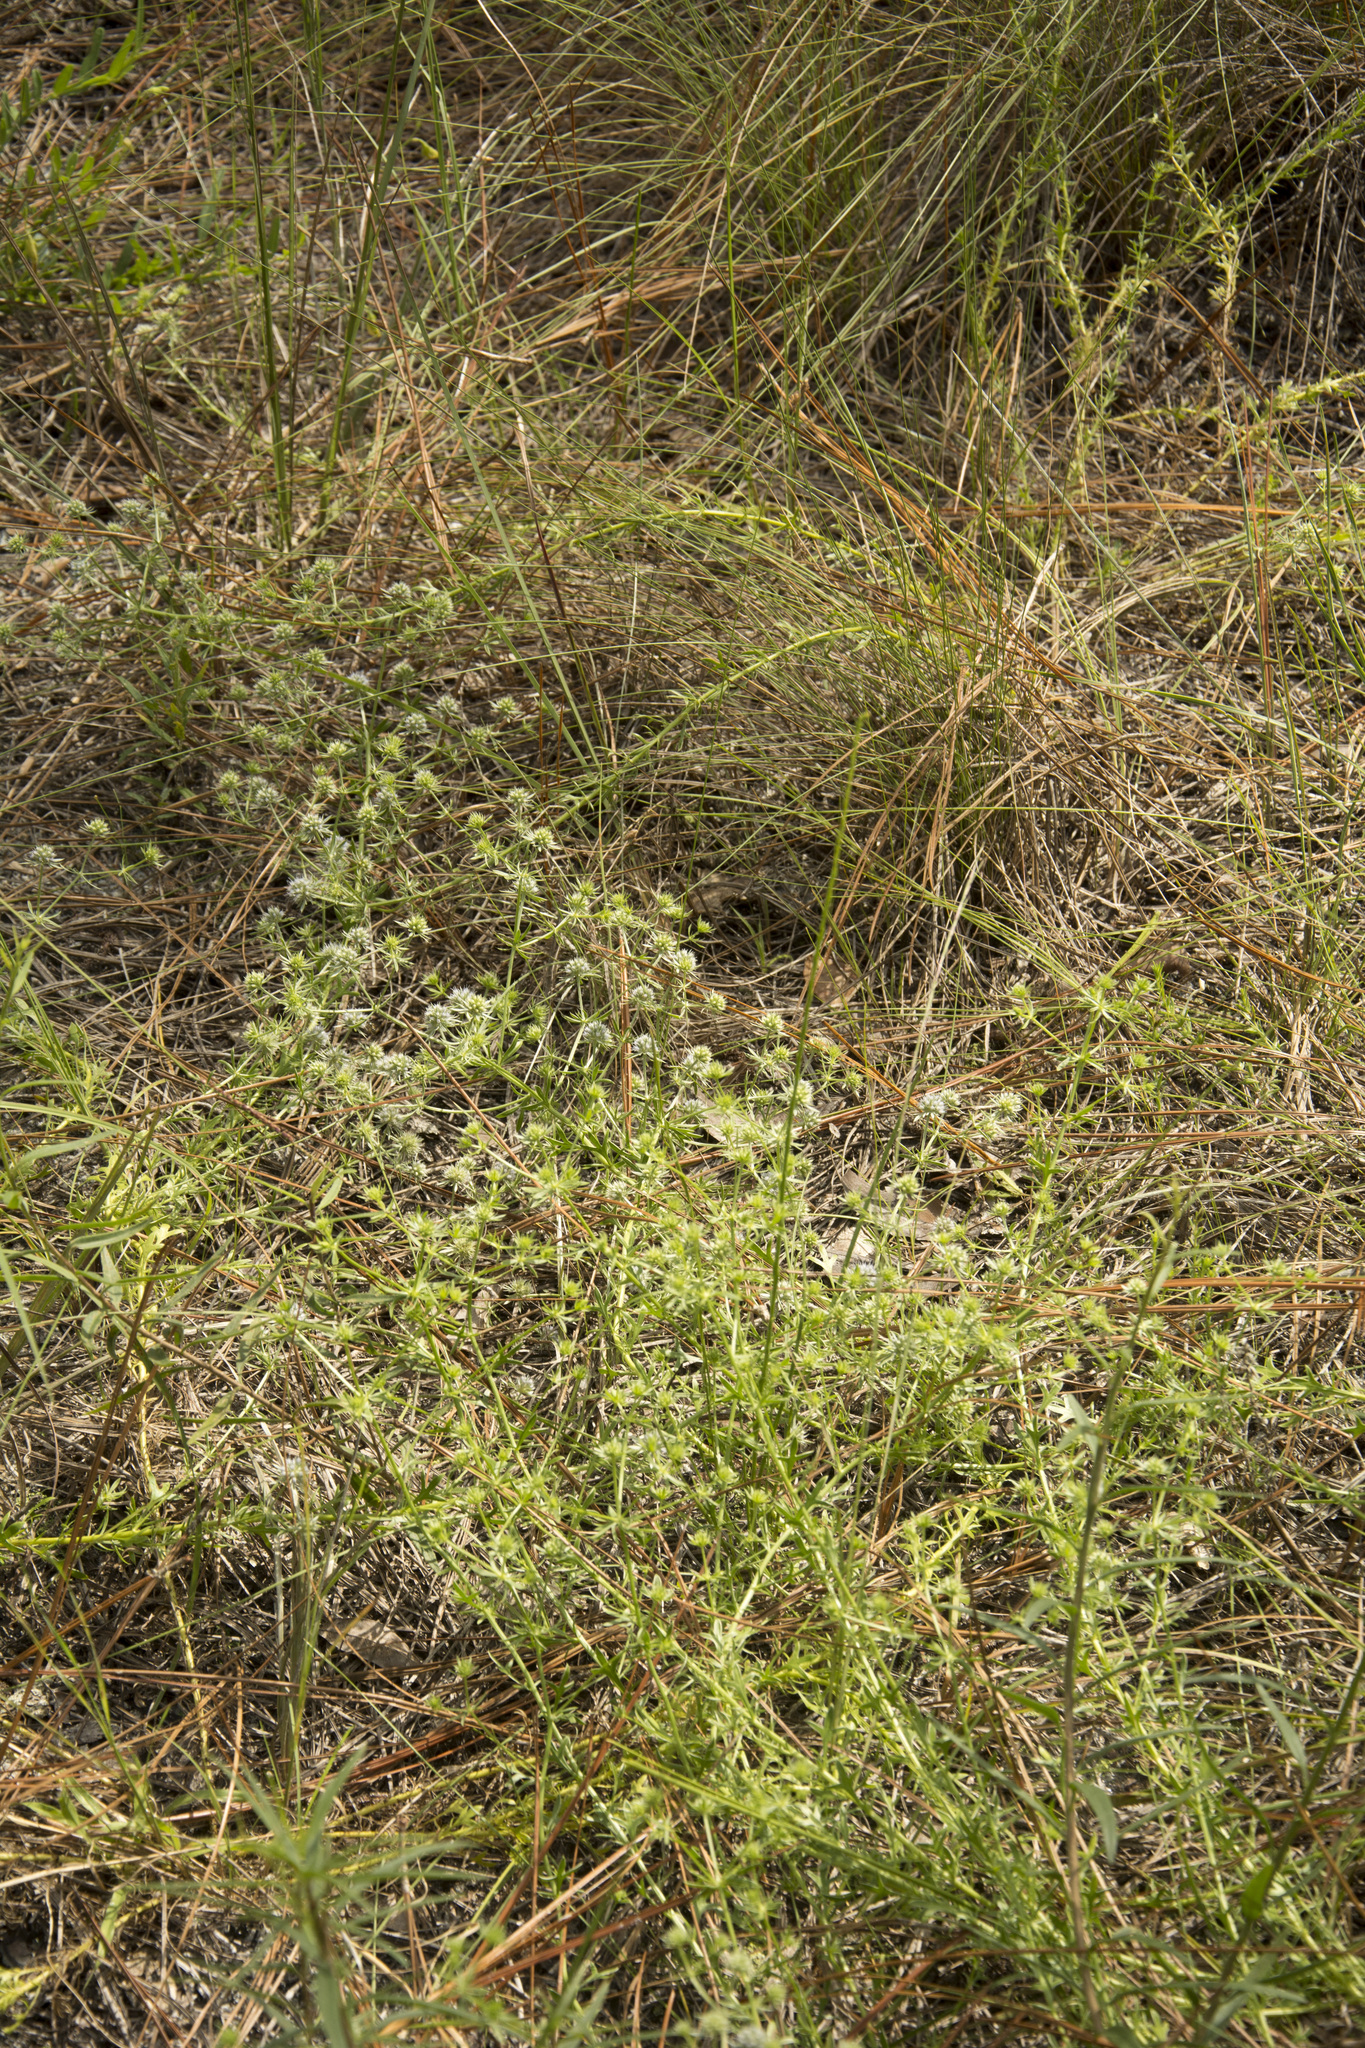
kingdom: Plantae
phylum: Tracheophyta
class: Magnoliopsida
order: Apiales
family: Apiaceae
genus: Eryngium
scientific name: Eryngium aromaticum
